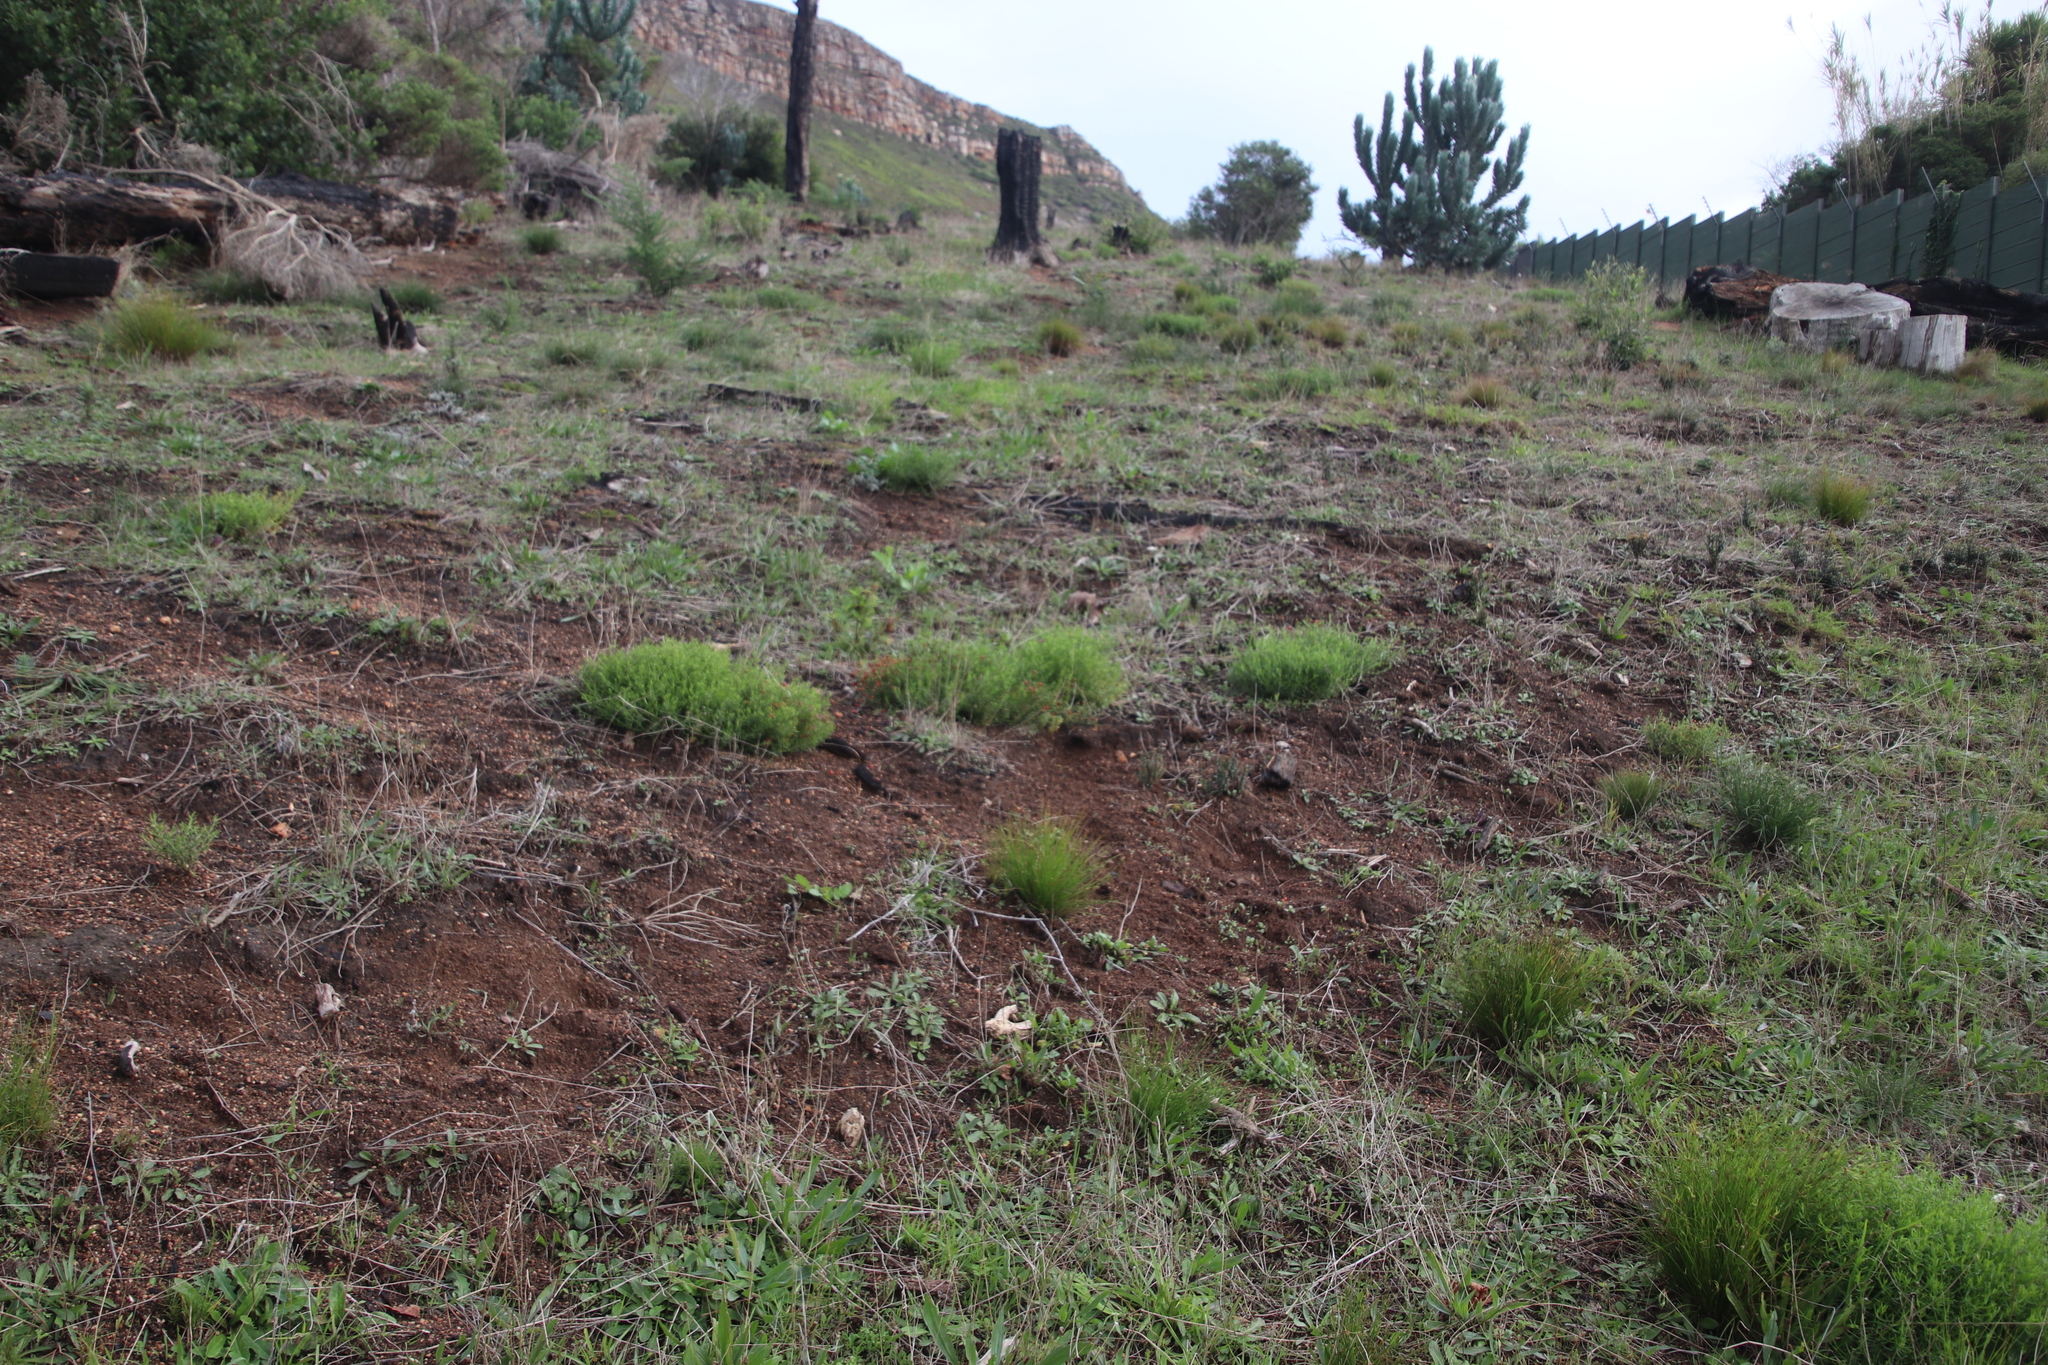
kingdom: Plantae
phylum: Tracheophyta
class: Magnoliopsida
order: Gentianales
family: Gentianaceae
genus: Chironia
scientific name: Chironia baccifera
